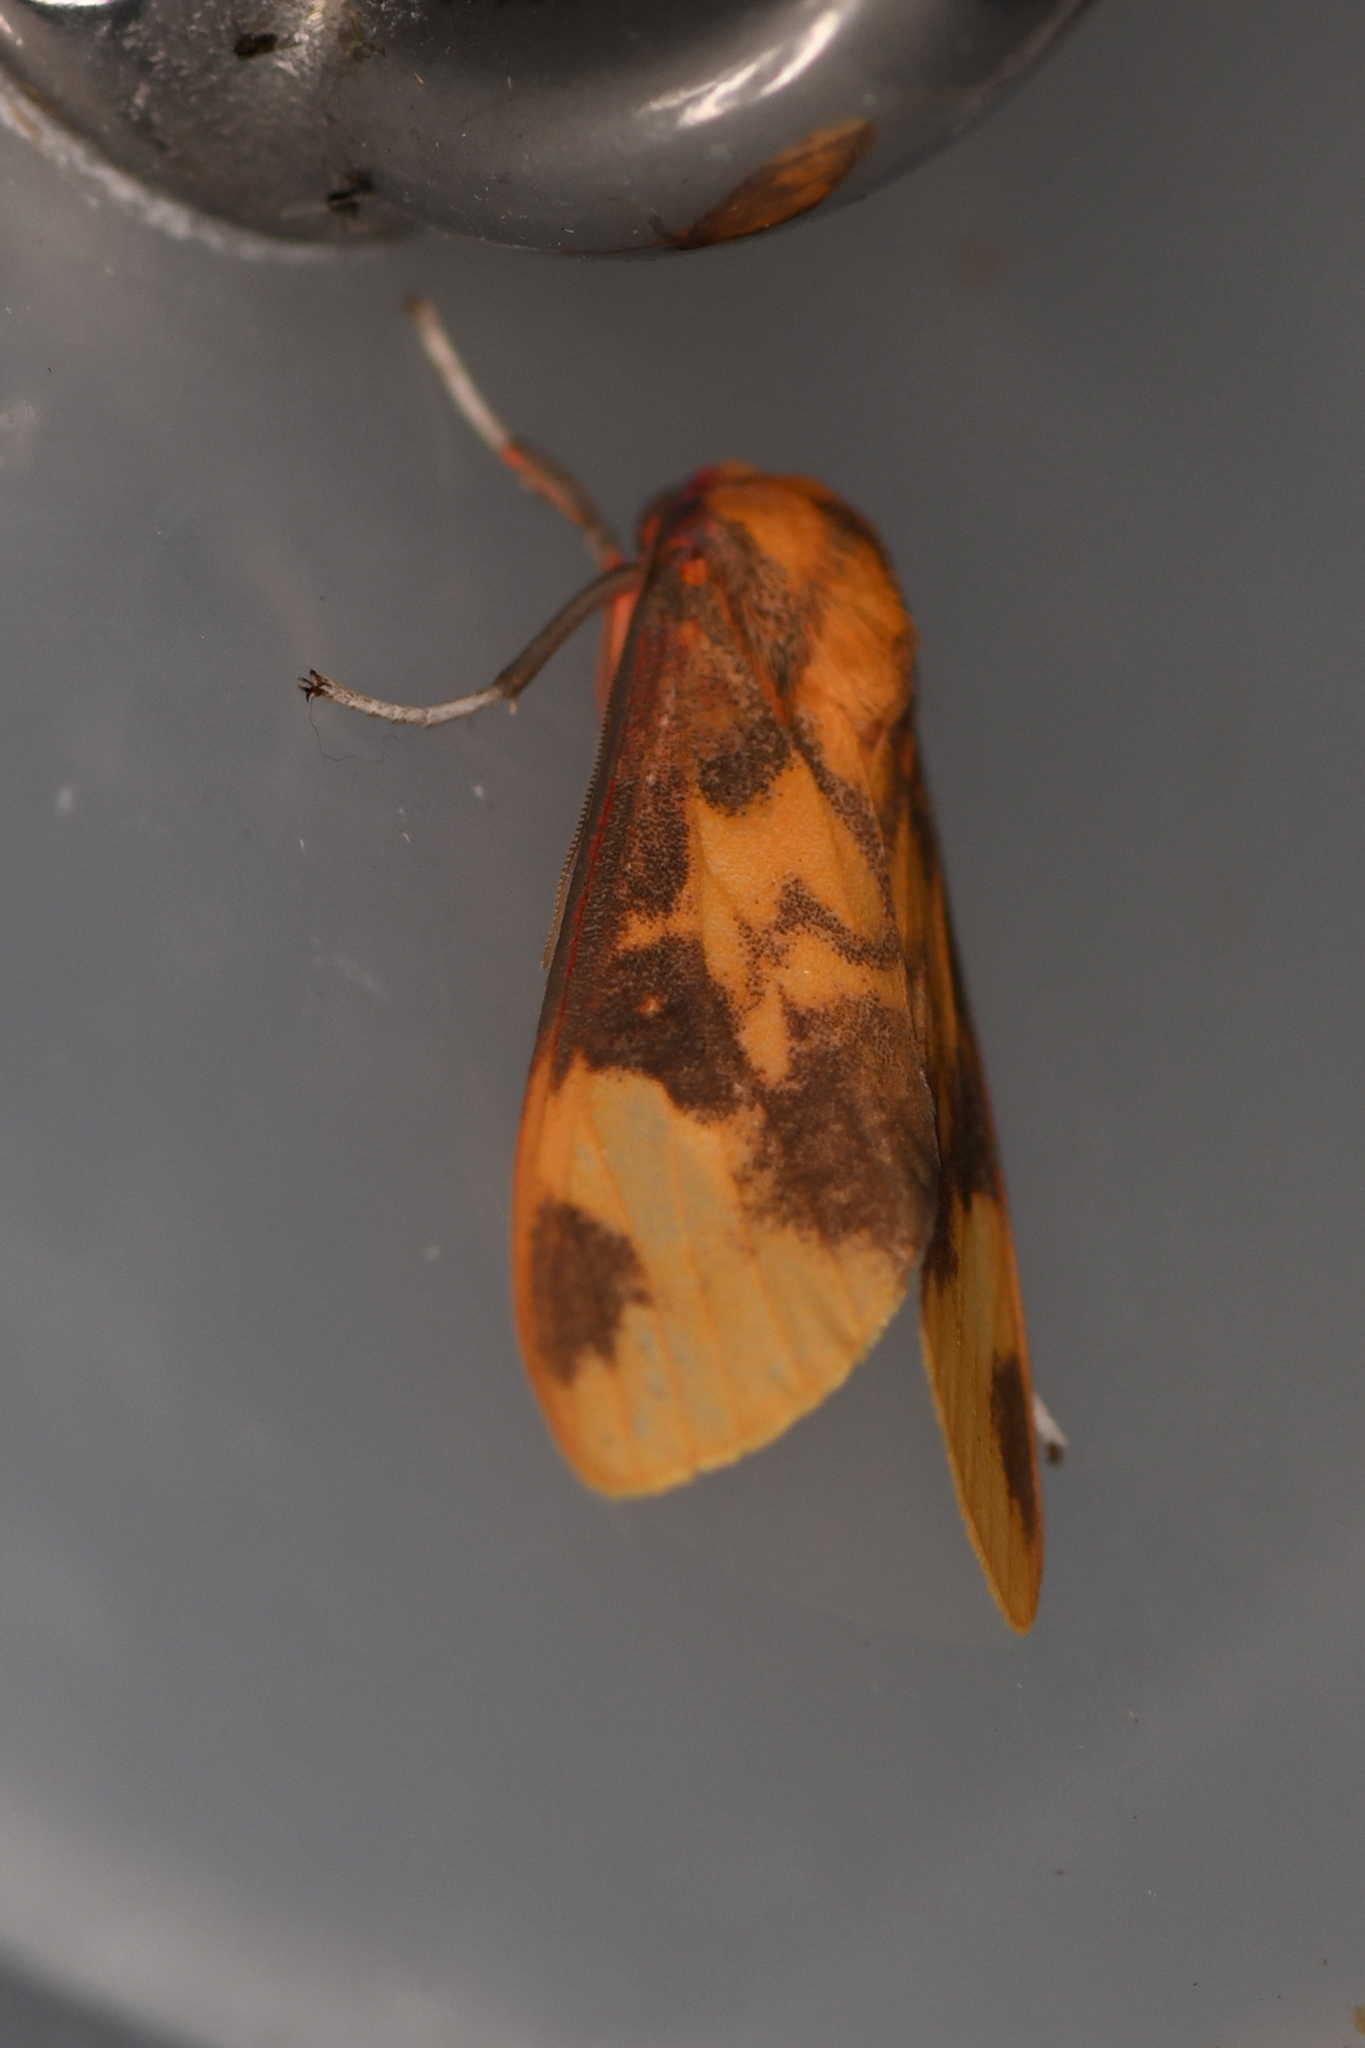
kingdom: Animalia
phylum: Arthropoda
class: Insecta
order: Lepidoptera
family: Erebidae
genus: Melese
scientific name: Melese laodamia
